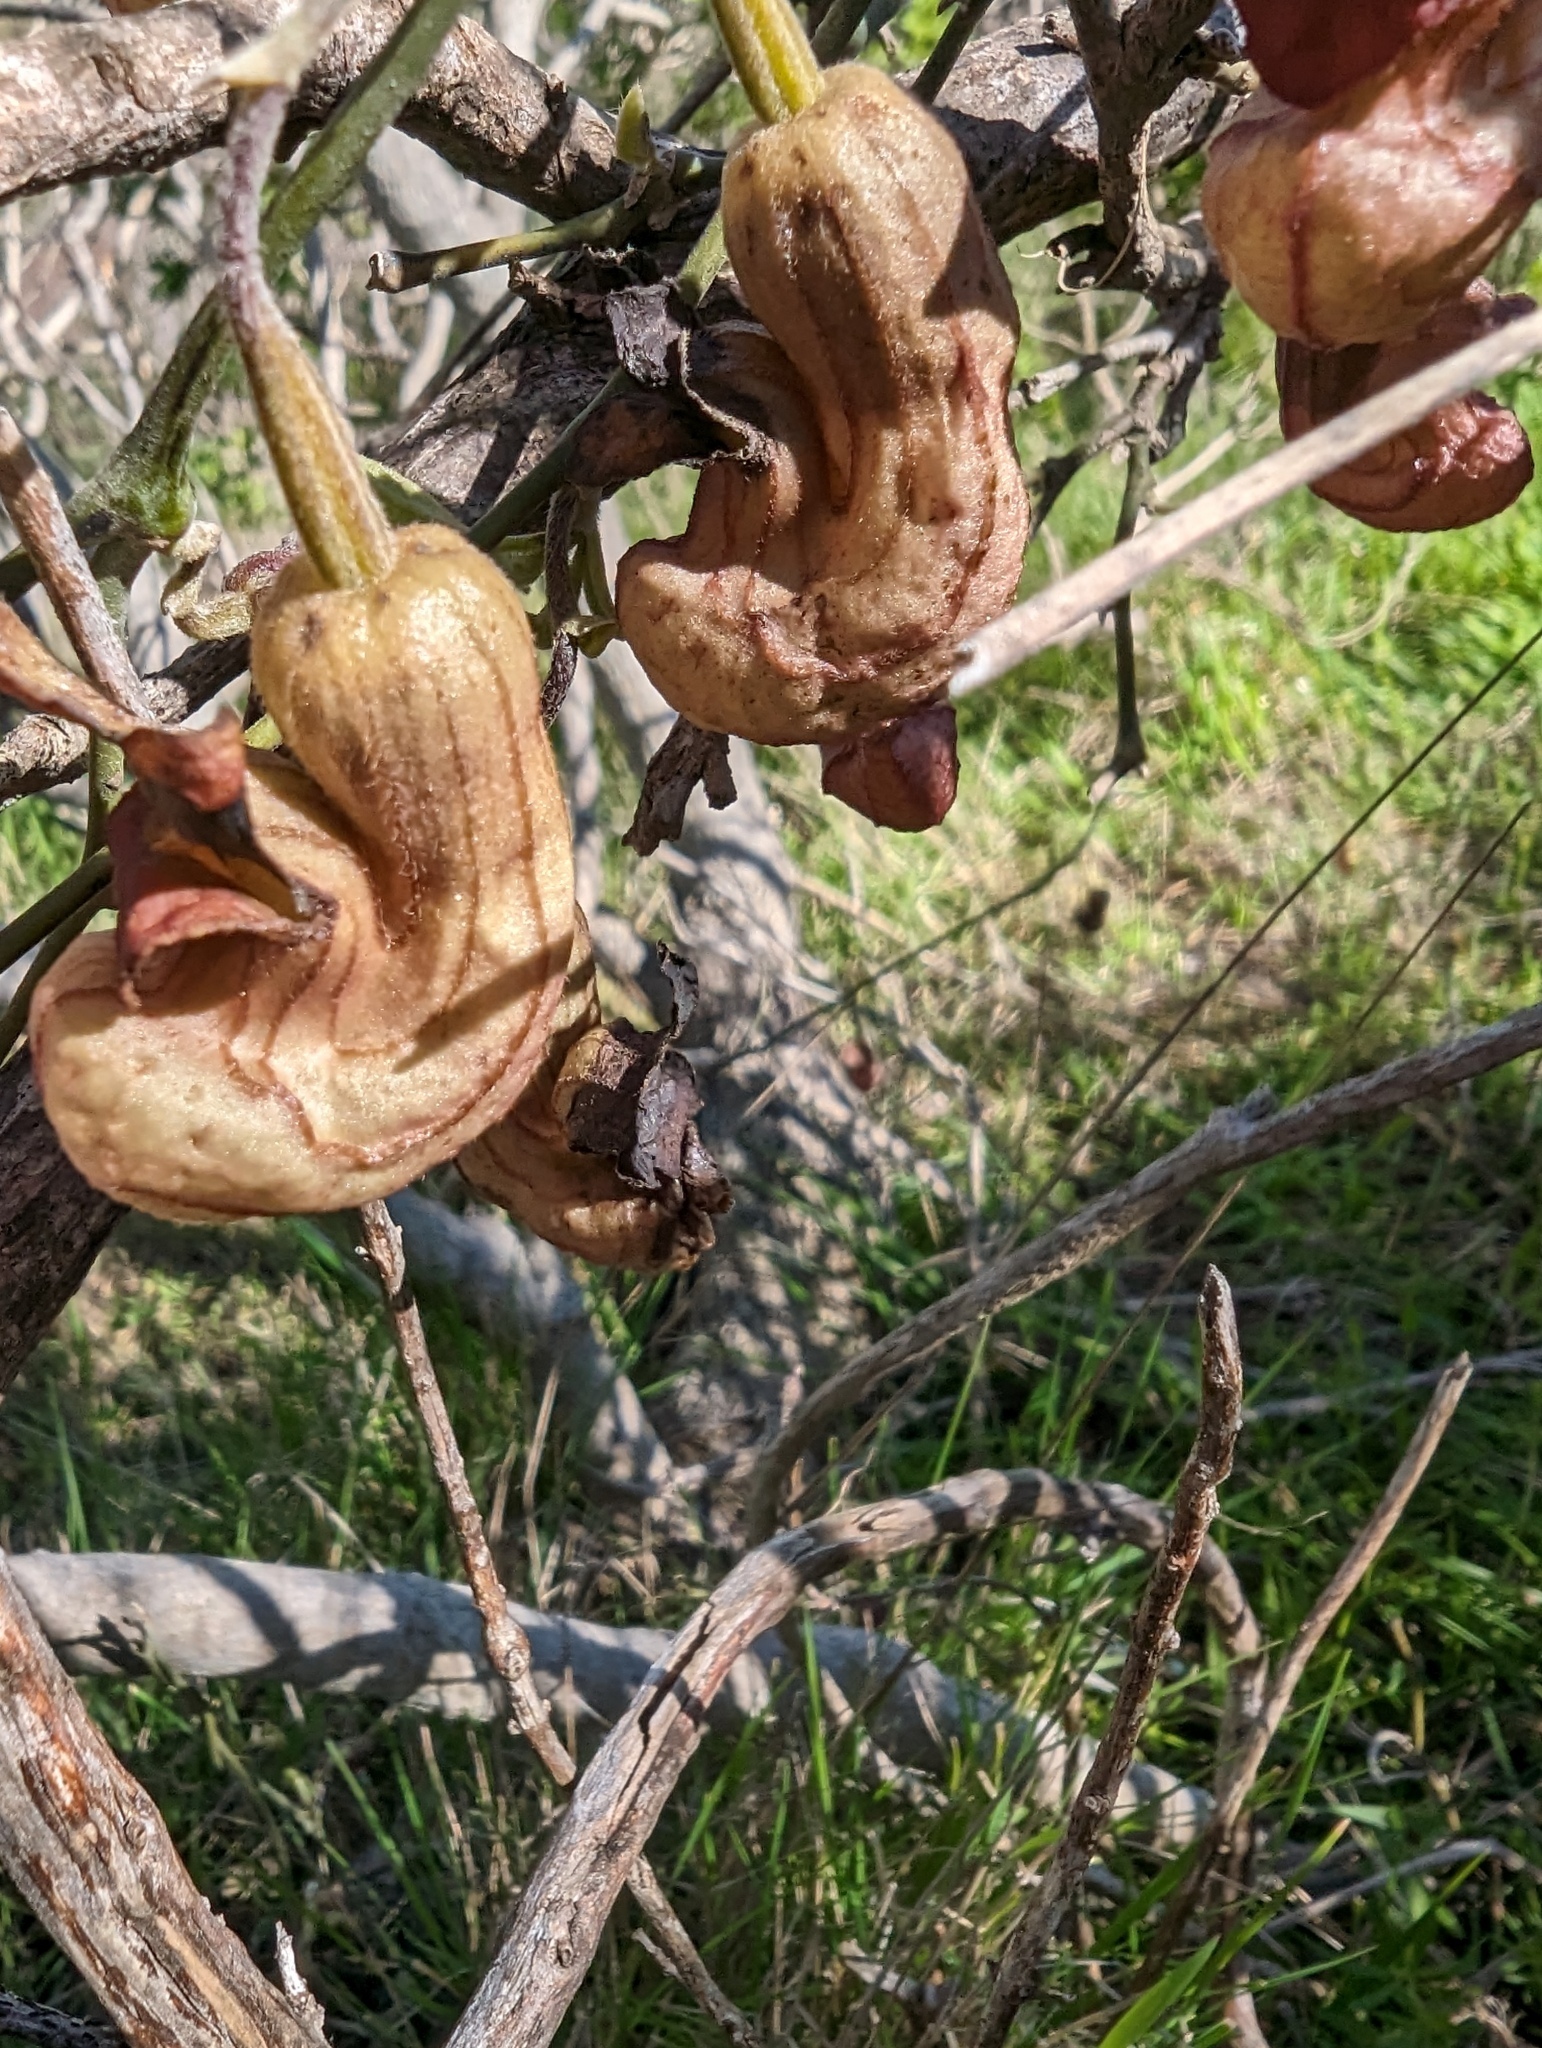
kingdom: Plantae
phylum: Tracheophyta
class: Magnoliopsida
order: Piperales
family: Aristolochiaceae
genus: Isotrema
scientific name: Isotrema californicum
